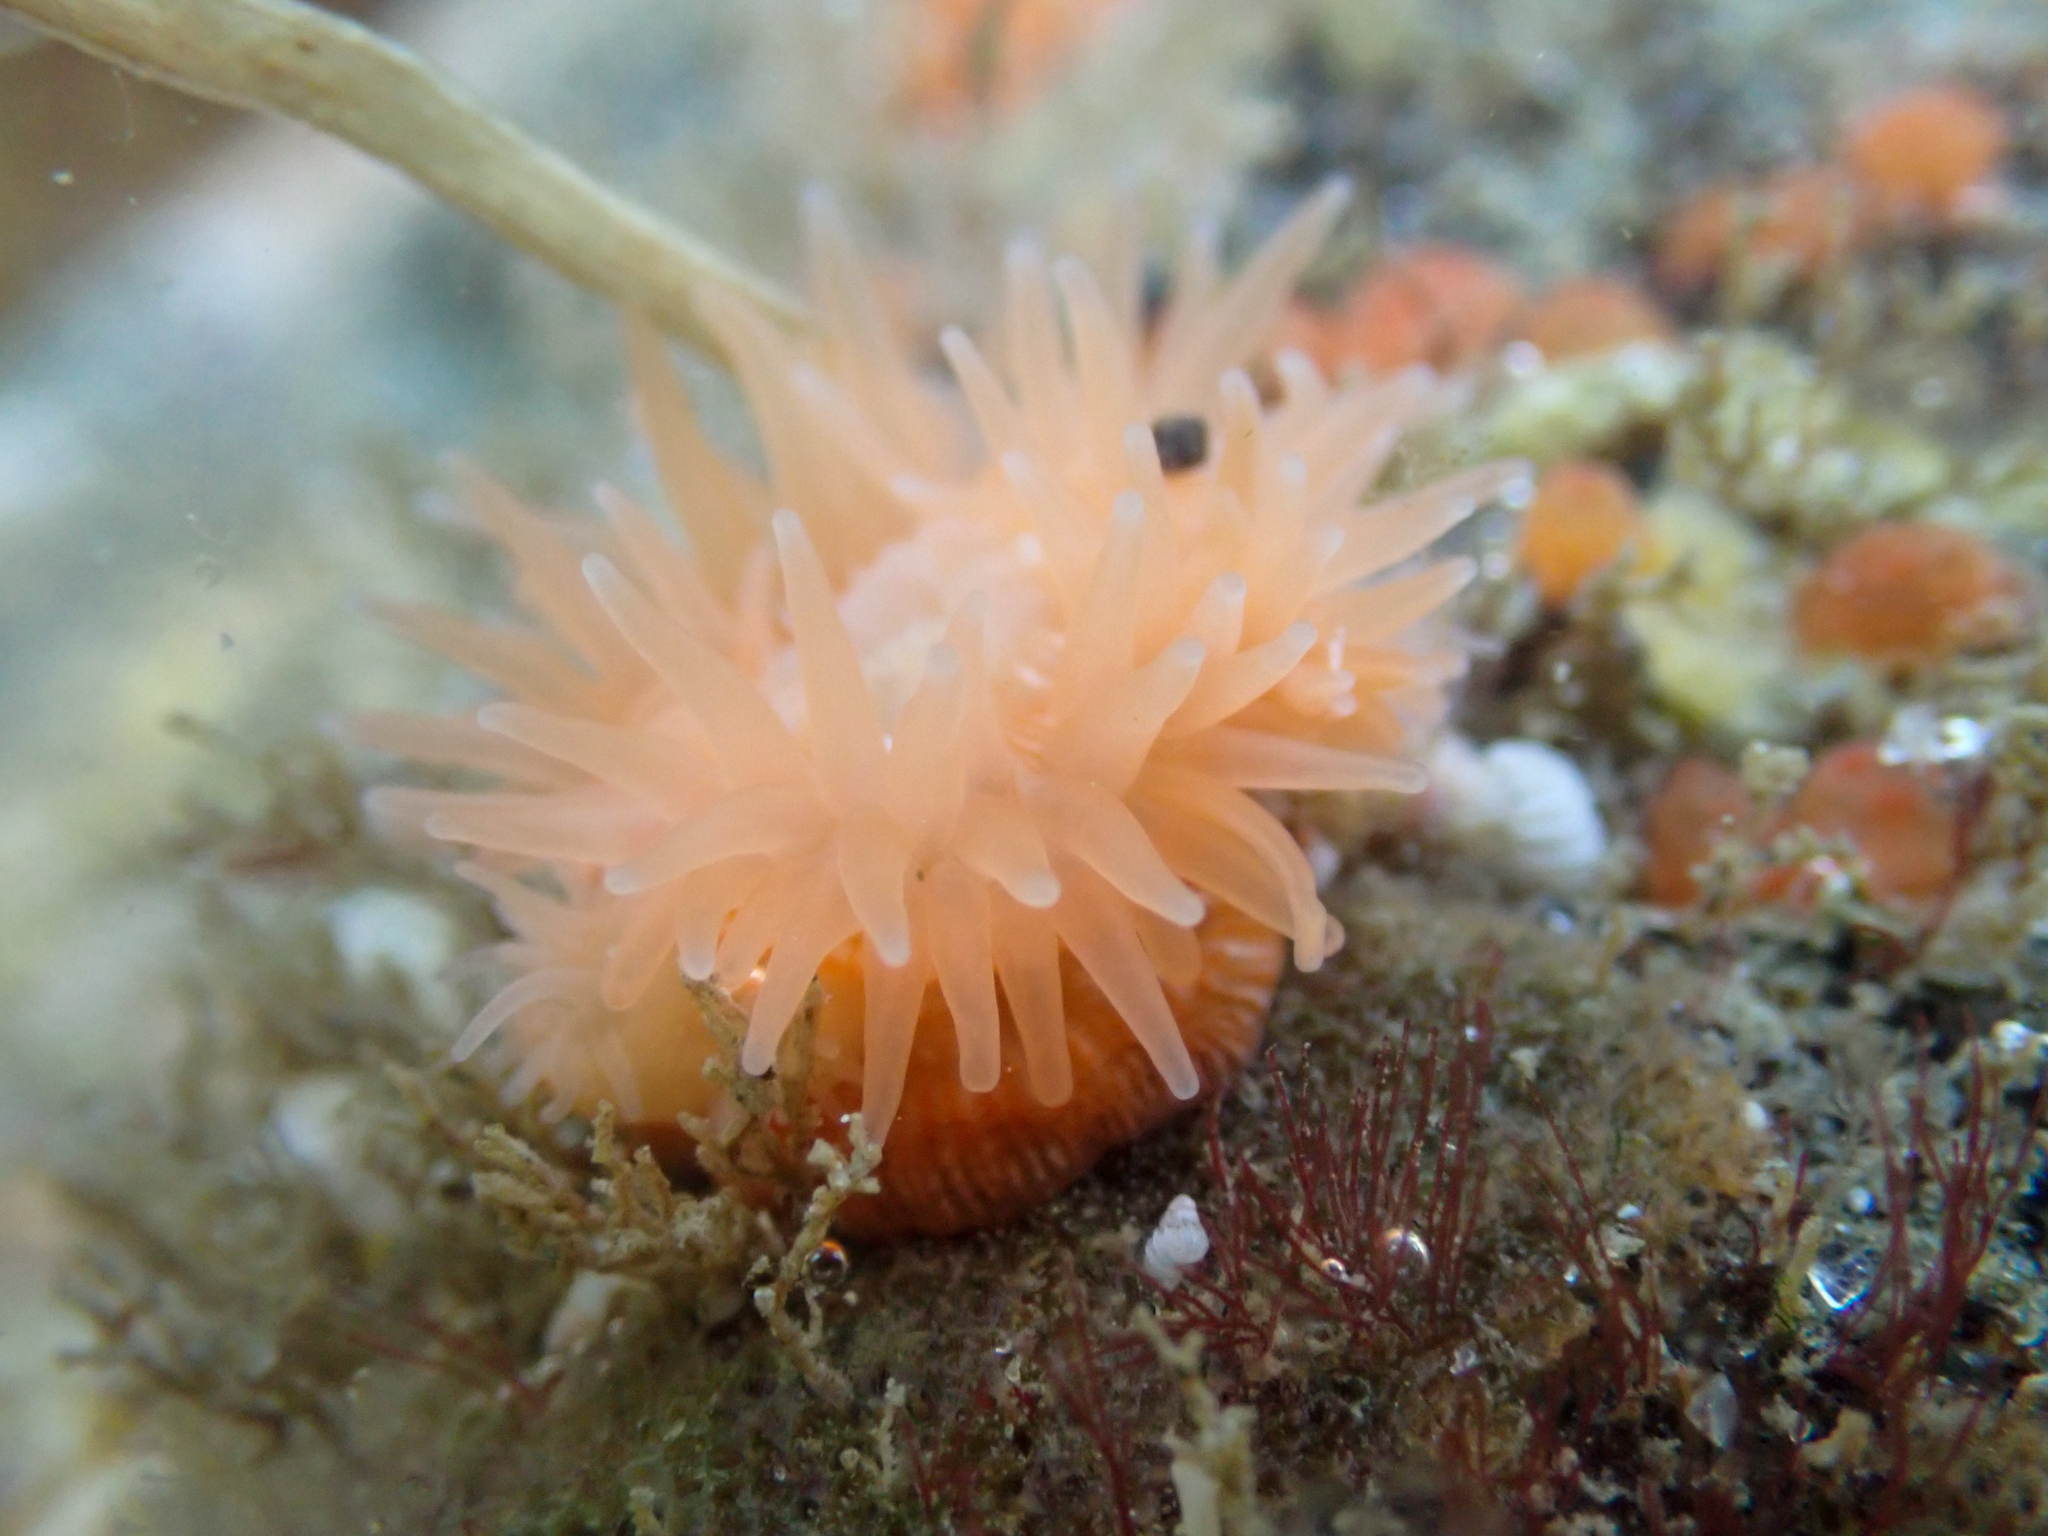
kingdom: Animalia
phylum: Cnidaria
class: Anthozoa
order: Actiniaria
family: Actiniidae
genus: Epiactis
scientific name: Epiactis prolifera
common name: Brooding anemone
